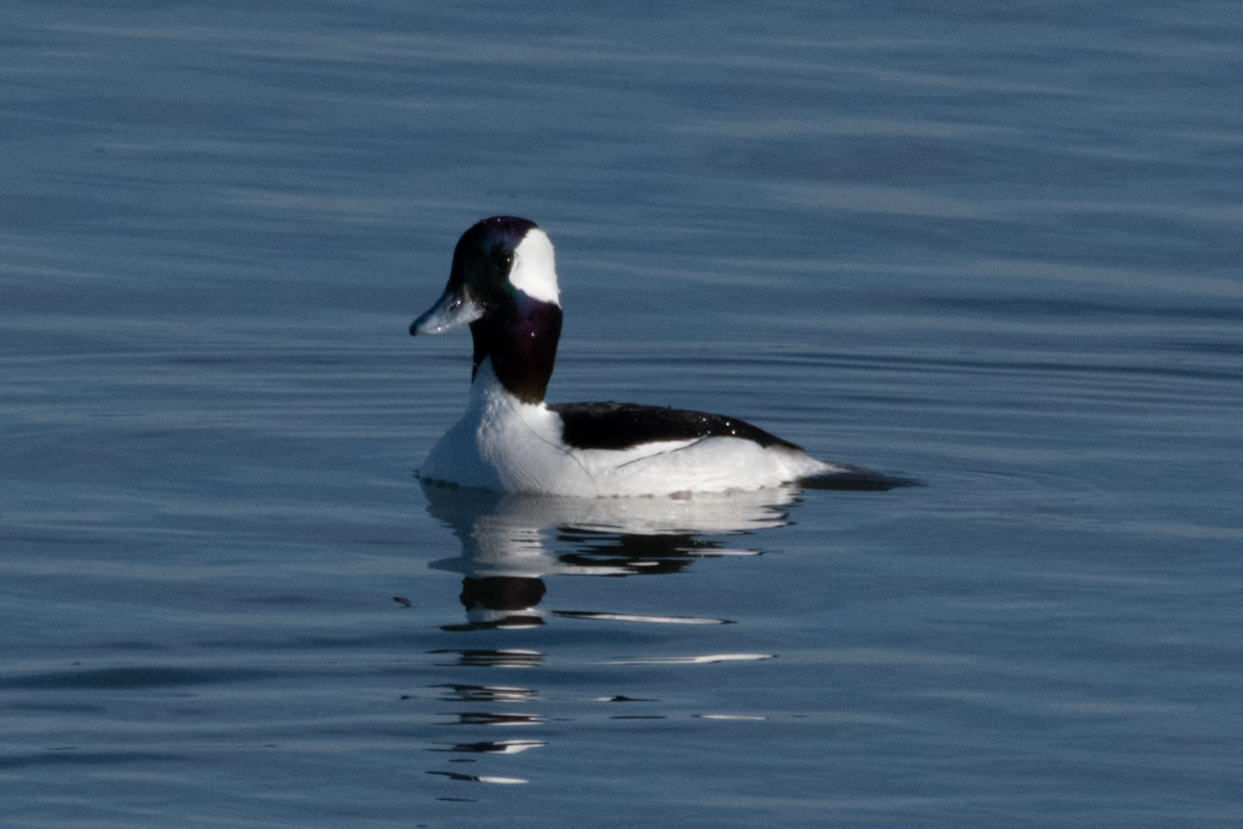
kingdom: Animalia
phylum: Chordata
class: Aves
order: Anseriformes
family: Anatidae
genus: Bucephala
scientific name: Bucephala albeola
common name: Bufflehead
